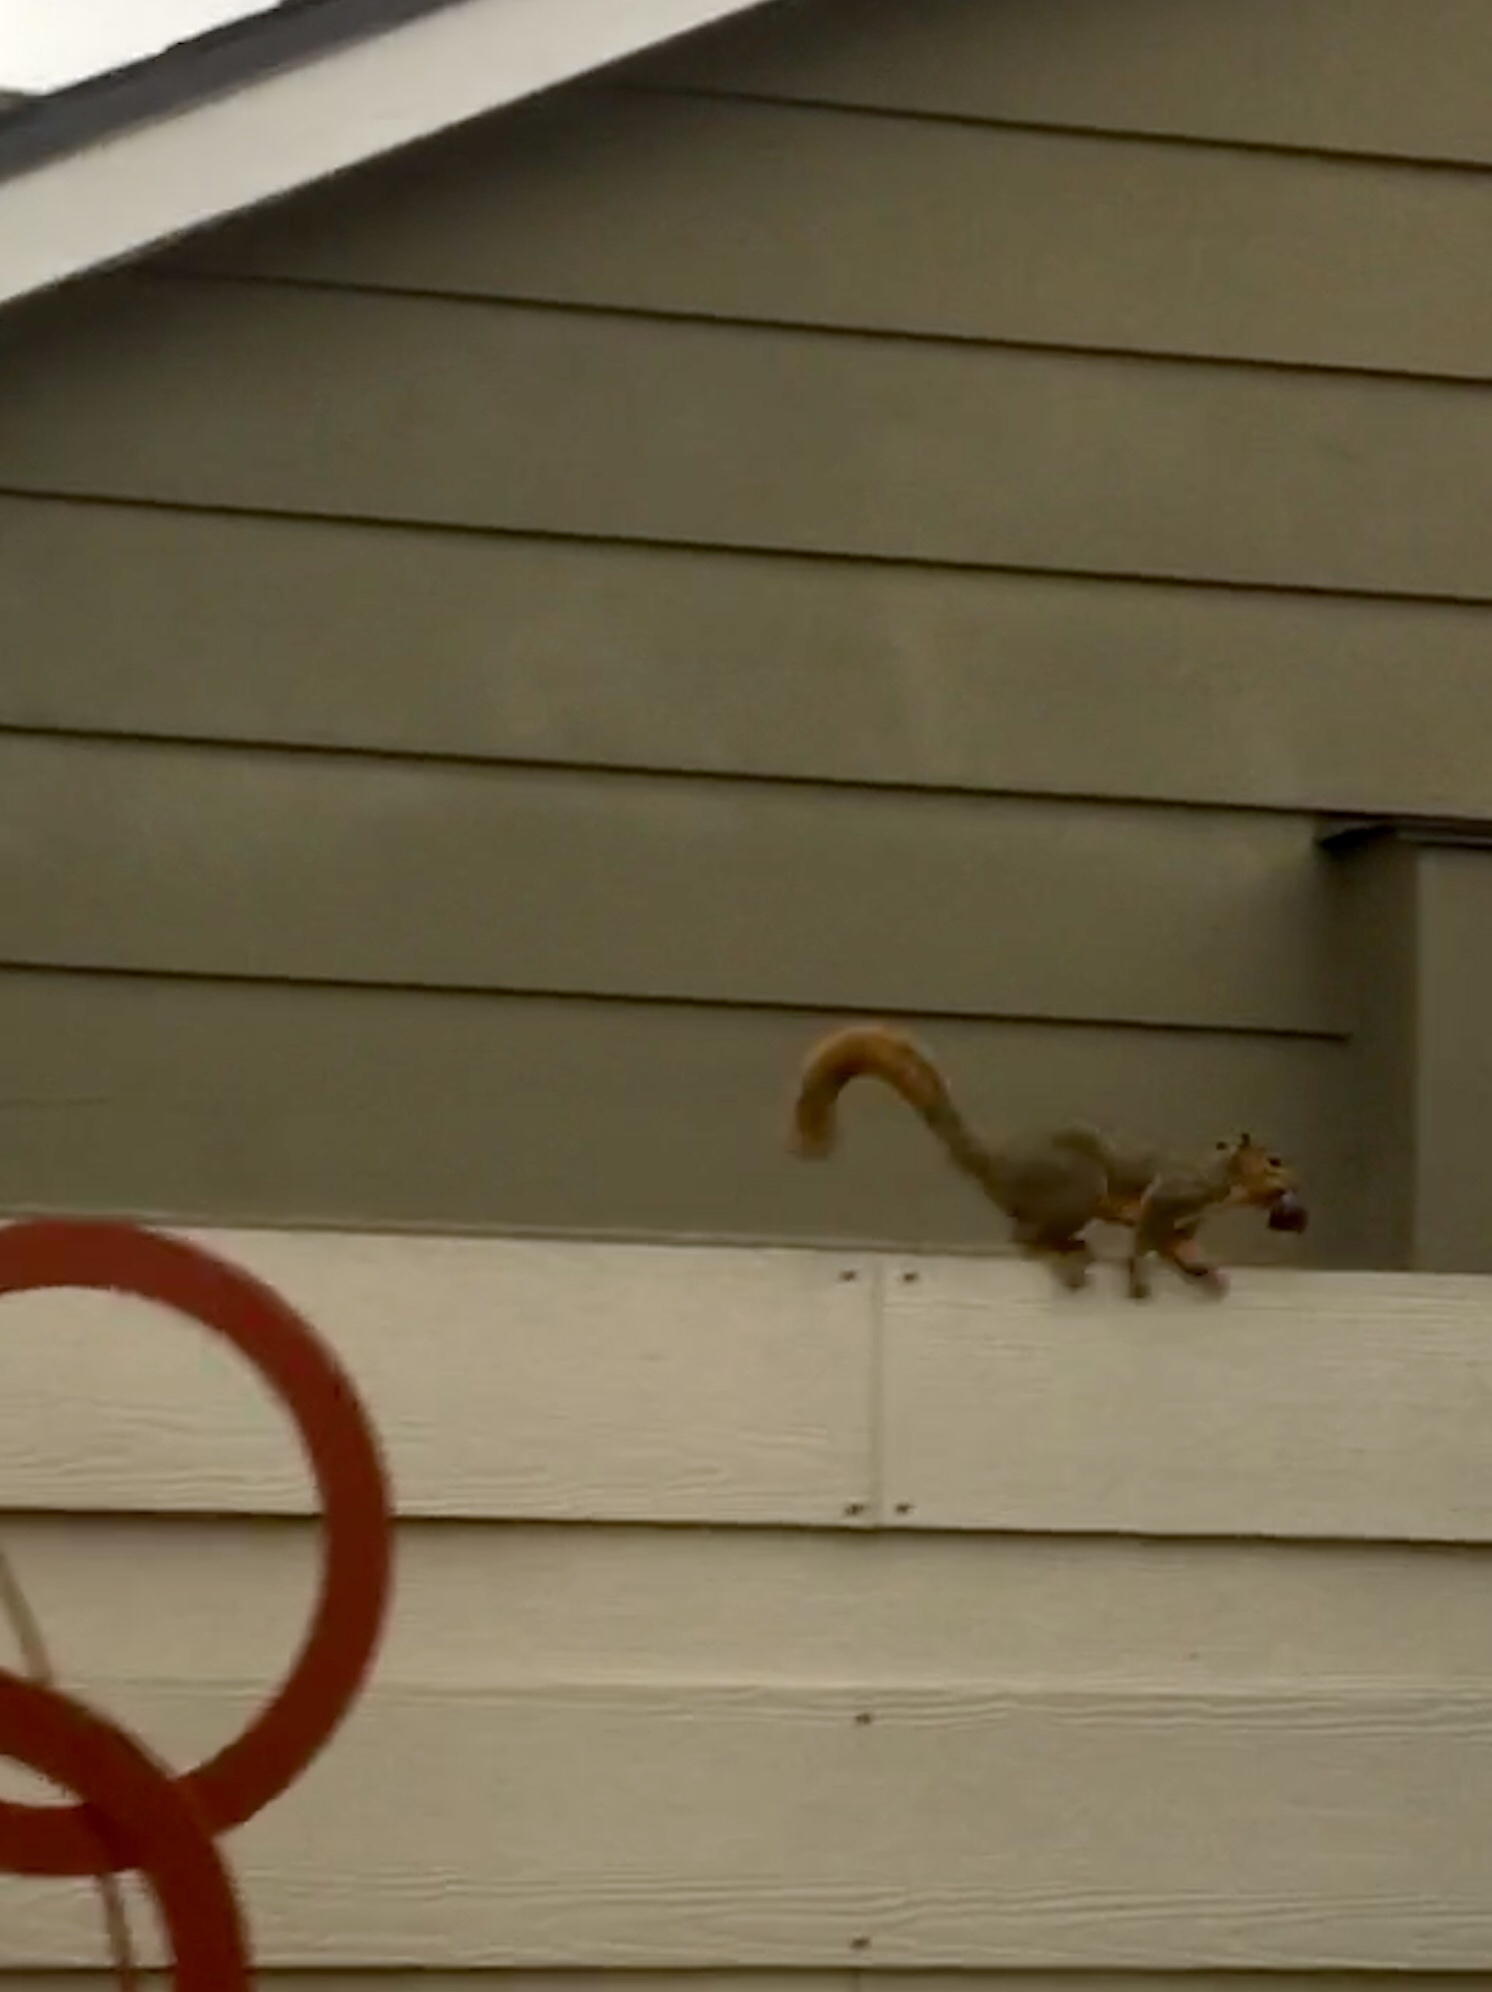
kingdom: Animalia
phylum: Chordata
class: Mammalia
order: Rodentia
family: Sciuridae
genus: Sciurus
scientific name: Sciurus niger
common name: Fox squirrel
